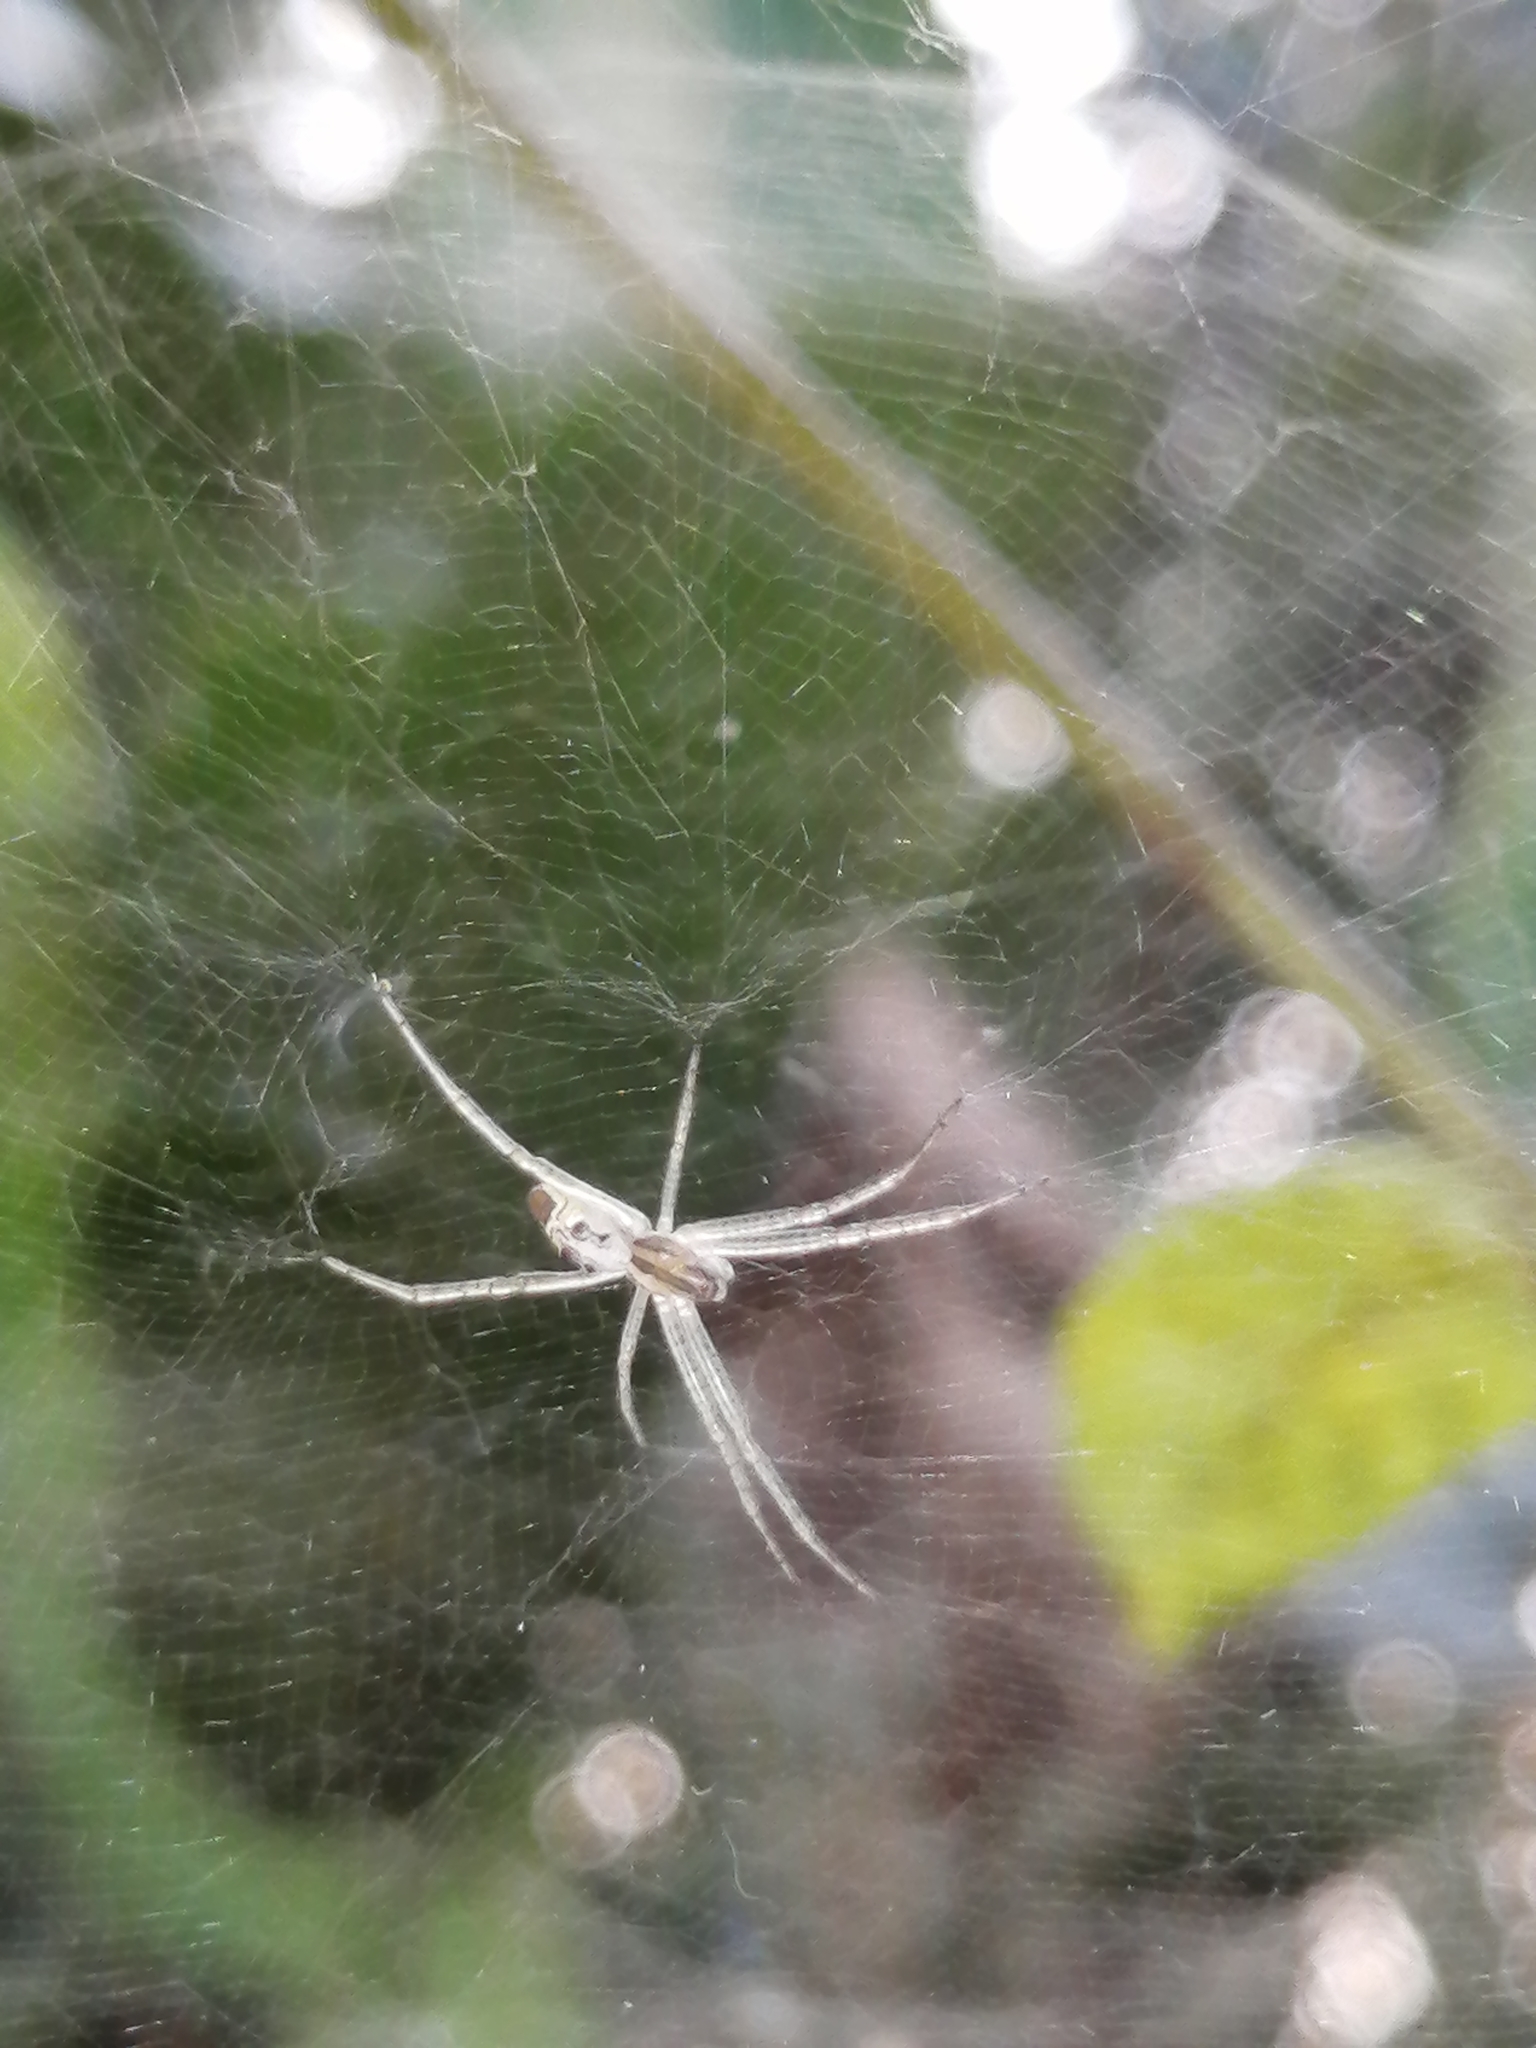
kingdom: Animalia
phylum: Arthropoda
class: Arachnida
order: Araneae
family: Araneidae
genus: Cyrtophora
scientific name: Cyrtophora cicatrosa
